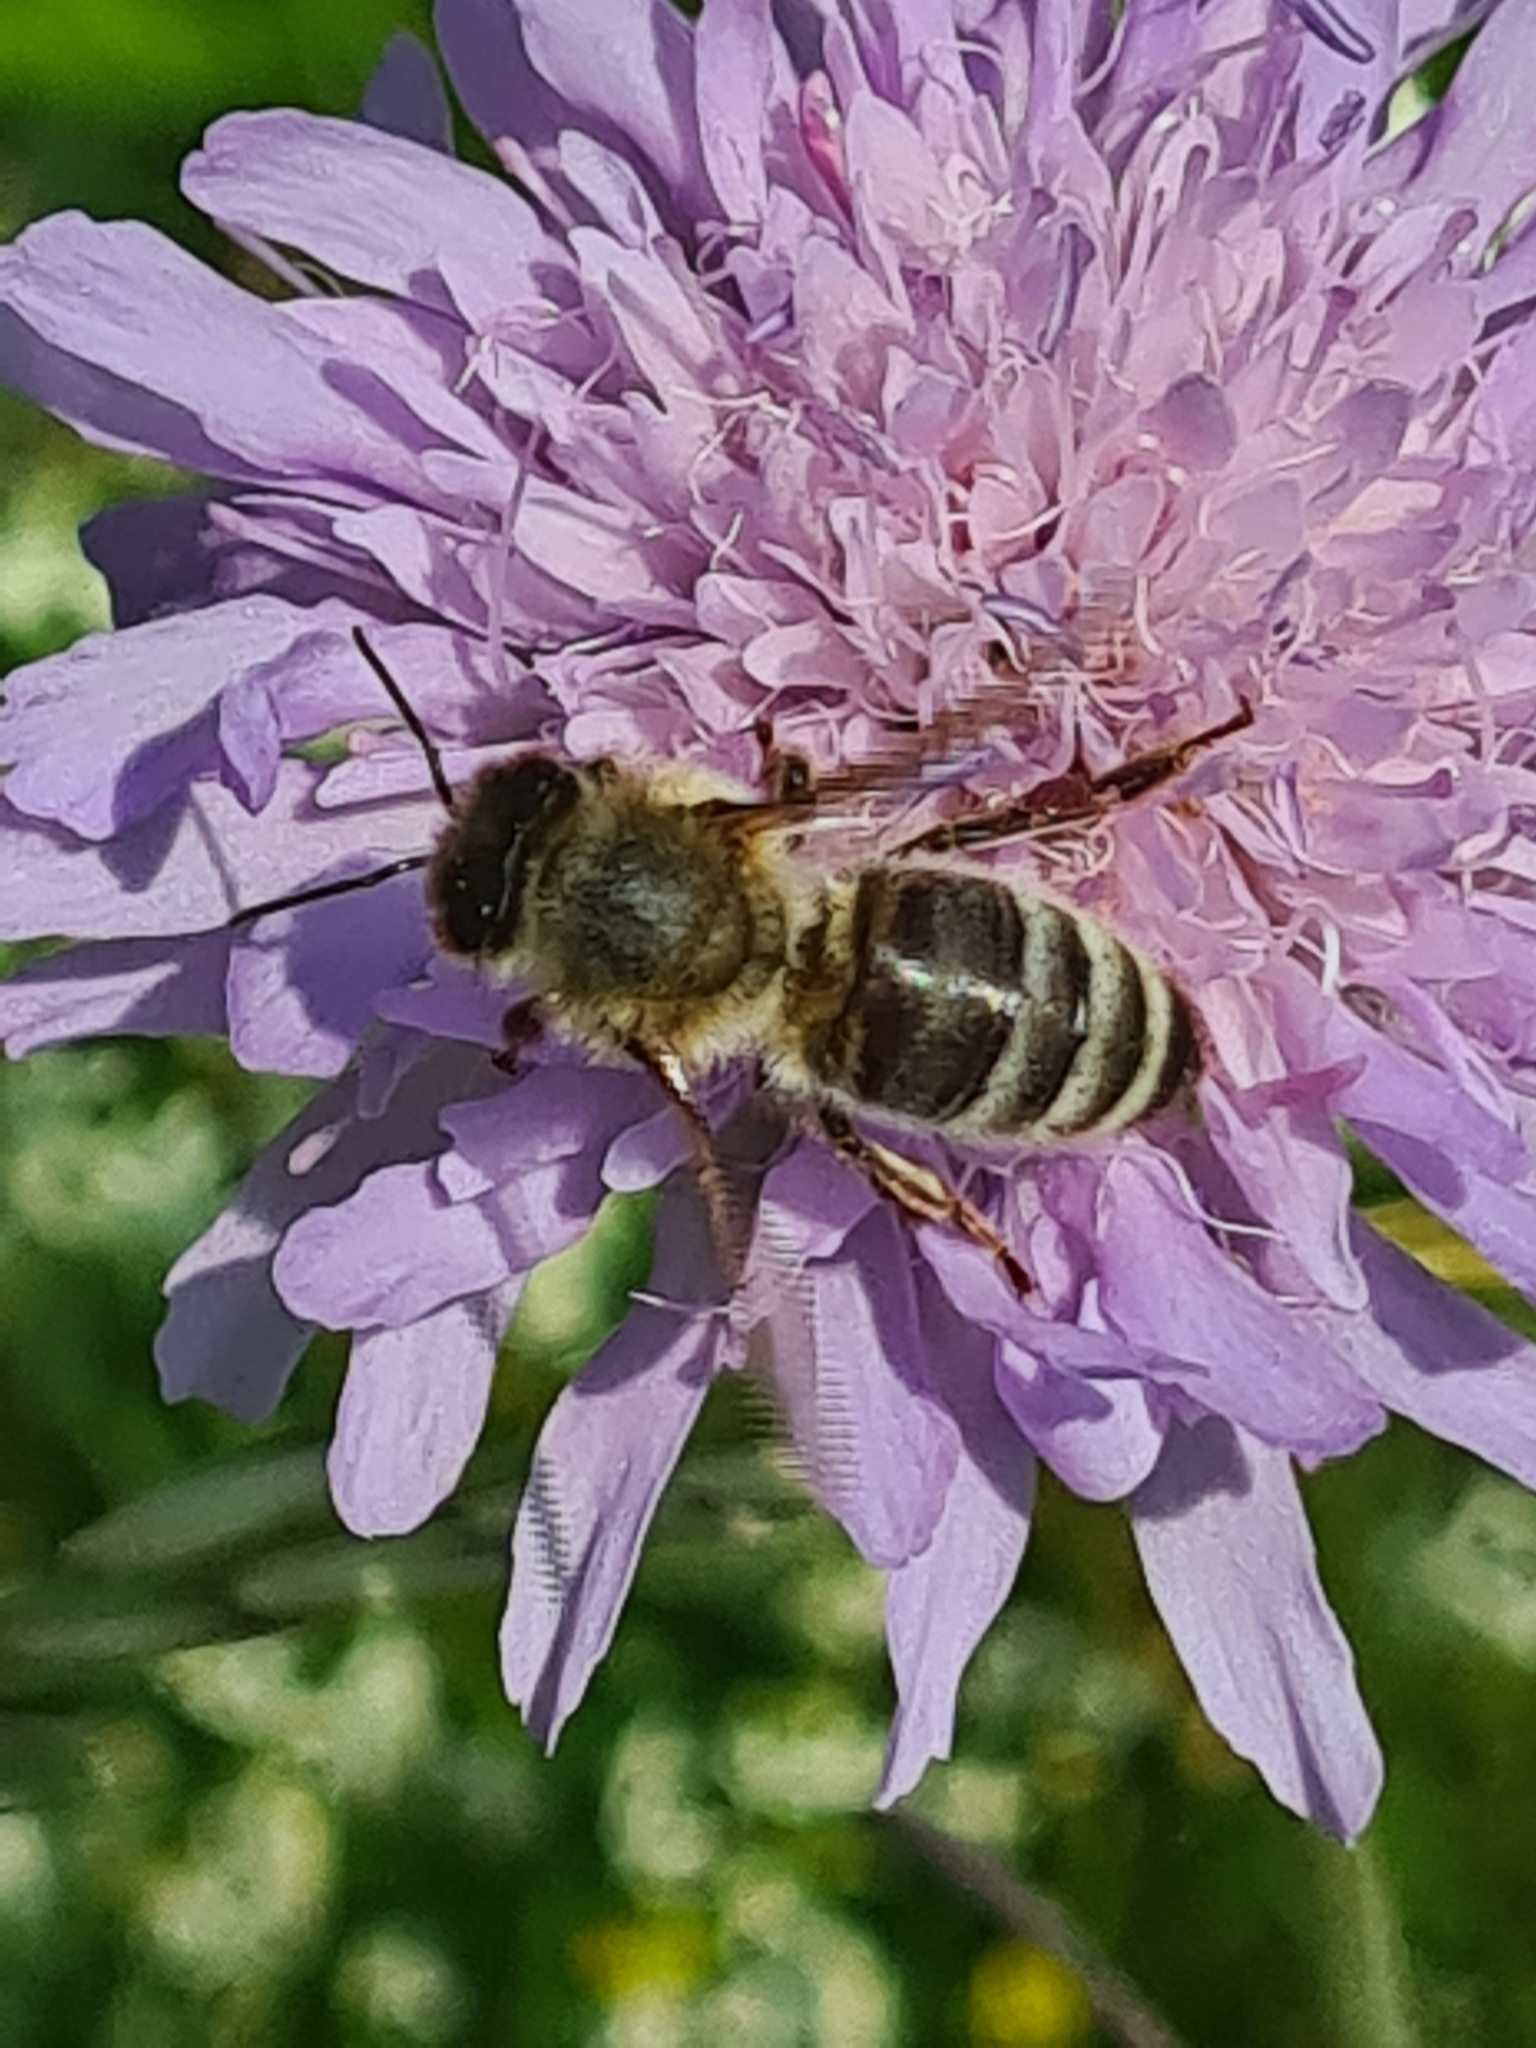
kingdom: Animalia
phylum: Arthropoda
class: Insecta
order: Hymenoptera
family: Apidae
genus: Apis
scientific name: Apis mellifera
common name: Honey bee
